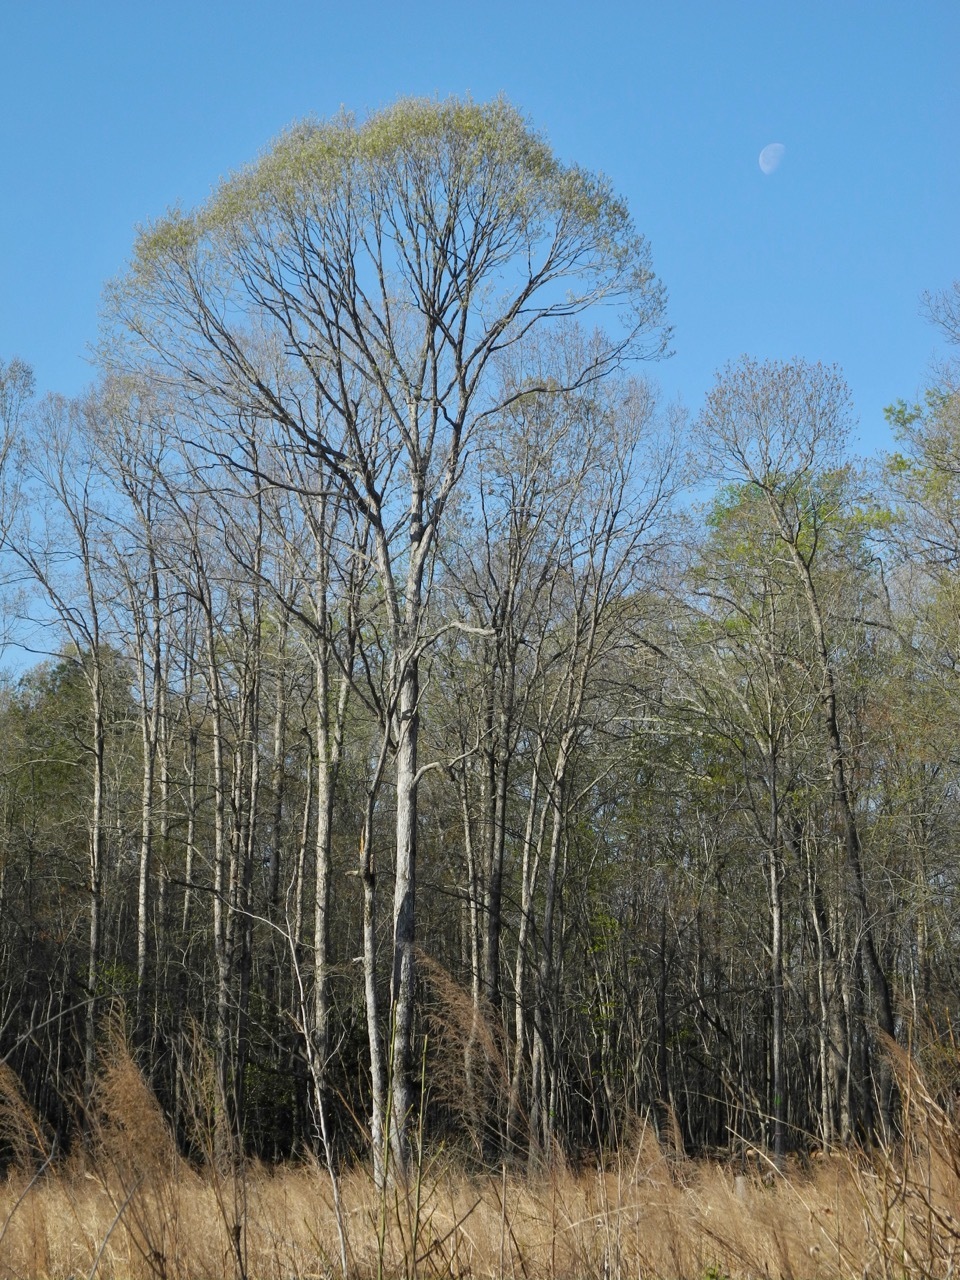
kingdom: Plantae
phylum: Tracheophyta
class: Magnoliopsida
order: Fagales
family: Fagaceae
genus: Quercus
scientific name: Quercus alba
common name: White oak
